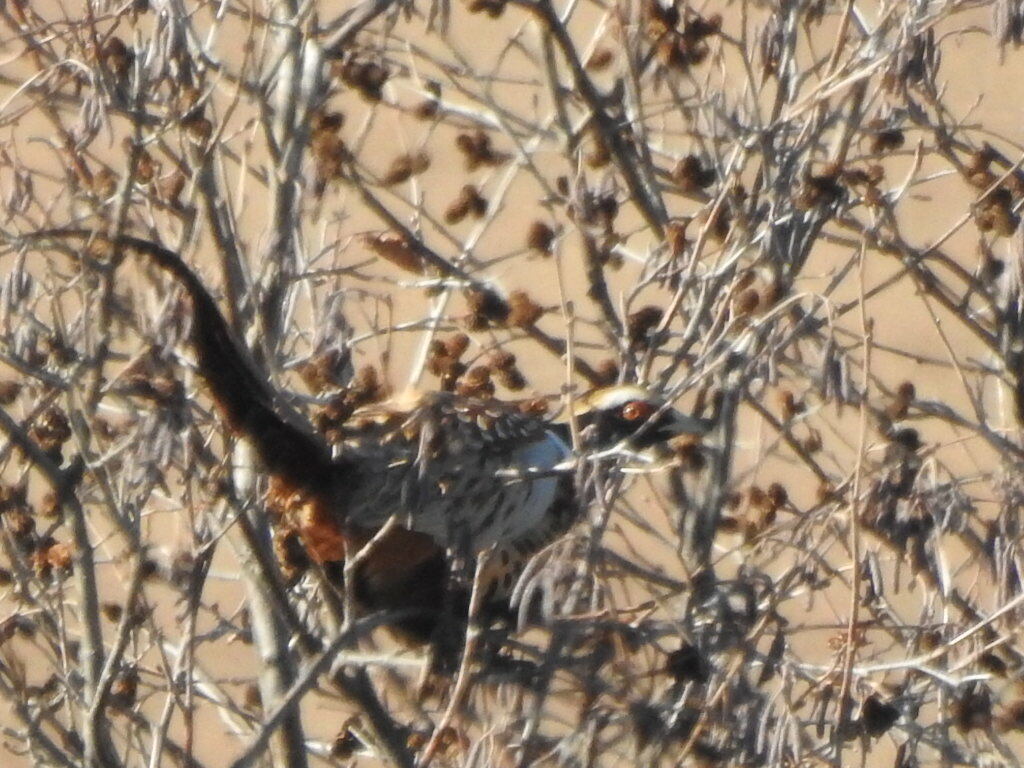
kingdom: Animalia
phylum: Chordata
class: Aves
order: Galliformes
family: Phasianidae
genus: Phasianus
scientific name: Phasianus colchicus
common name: Common pheasant
